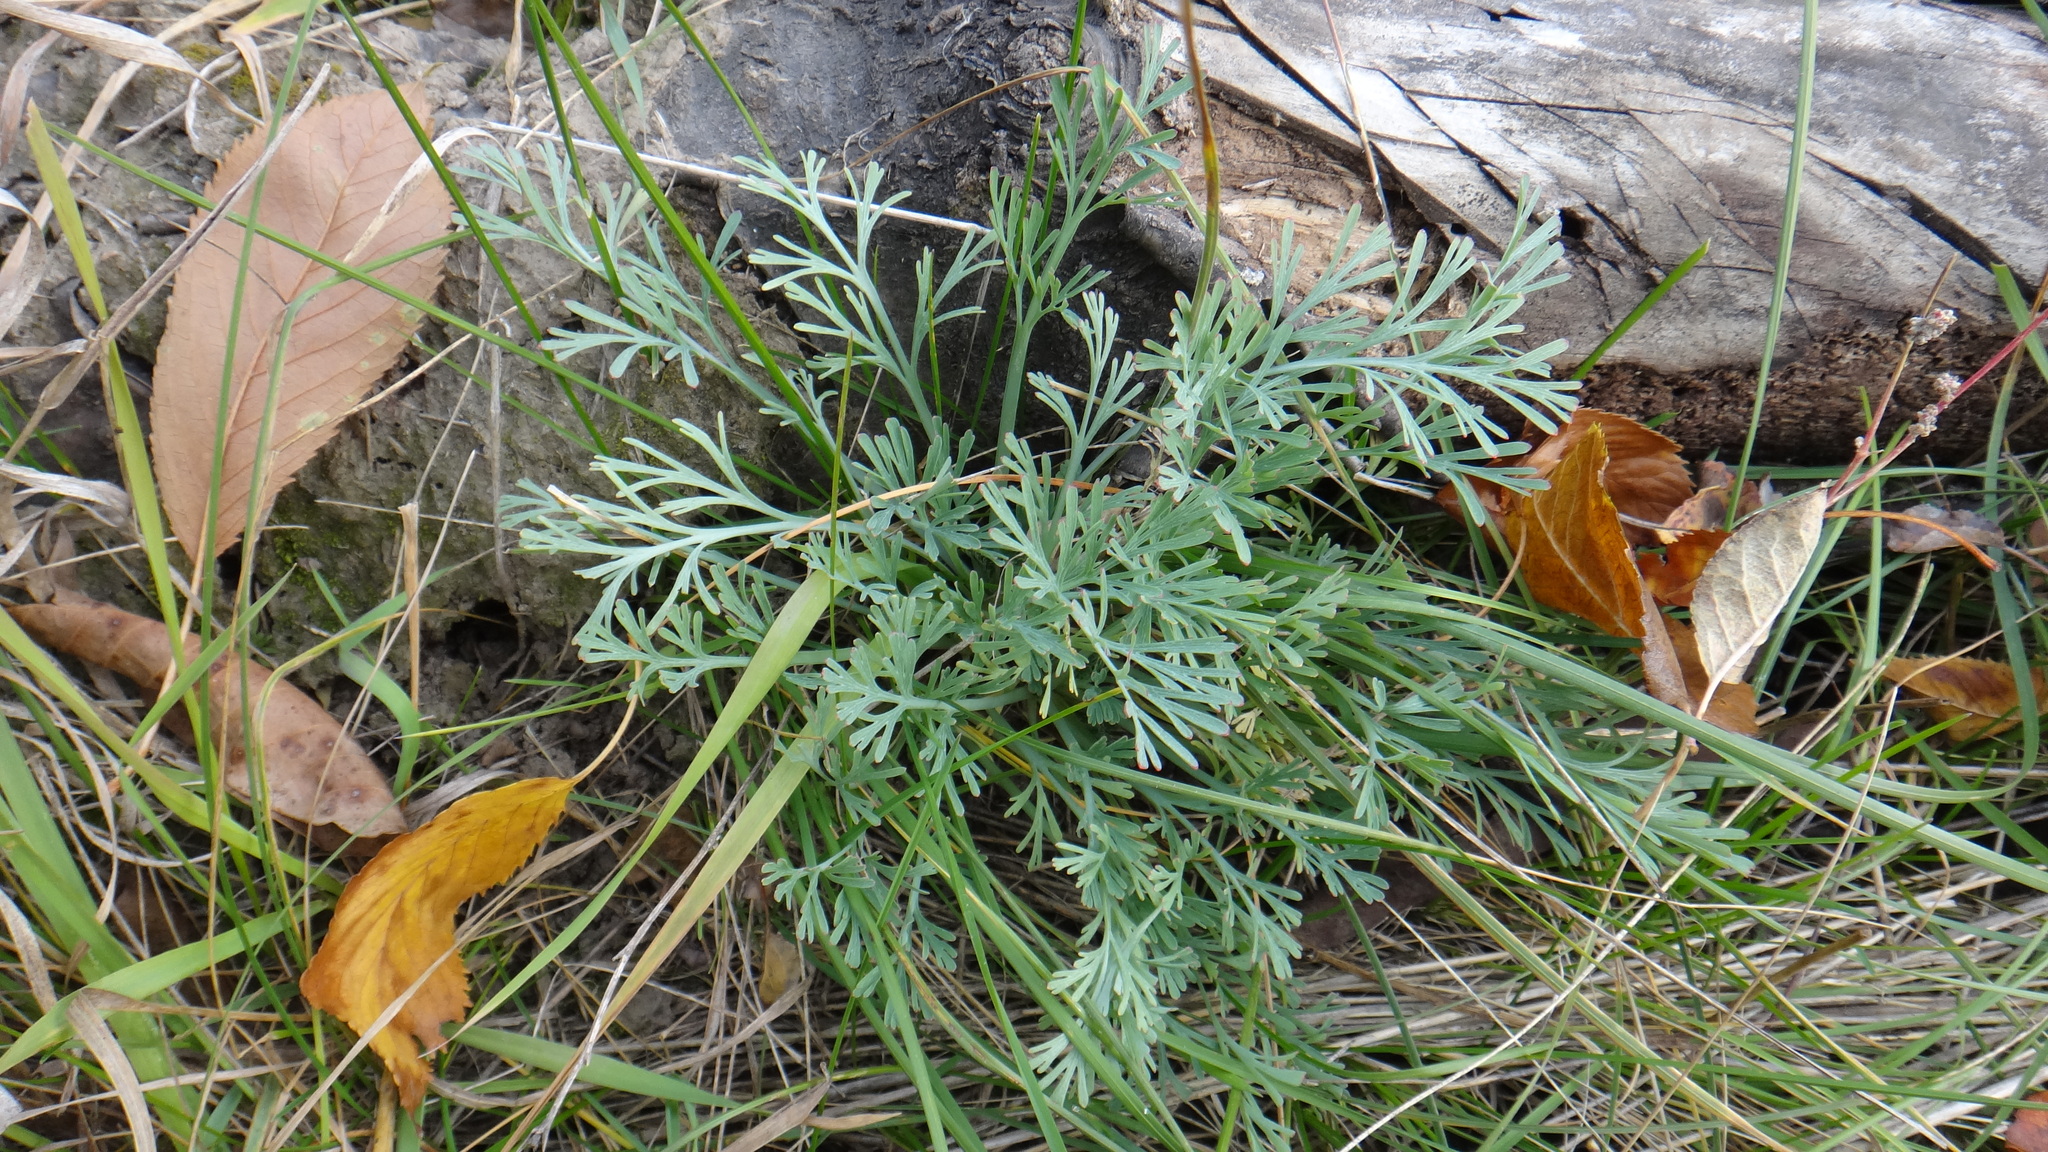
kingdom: Plantae
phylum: Tracheophyta
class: Magnoliopsida
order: Ranunculales
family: Papaveraceae
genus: Eschscholzia
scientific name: Eschscholzia californica
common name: California poppy
